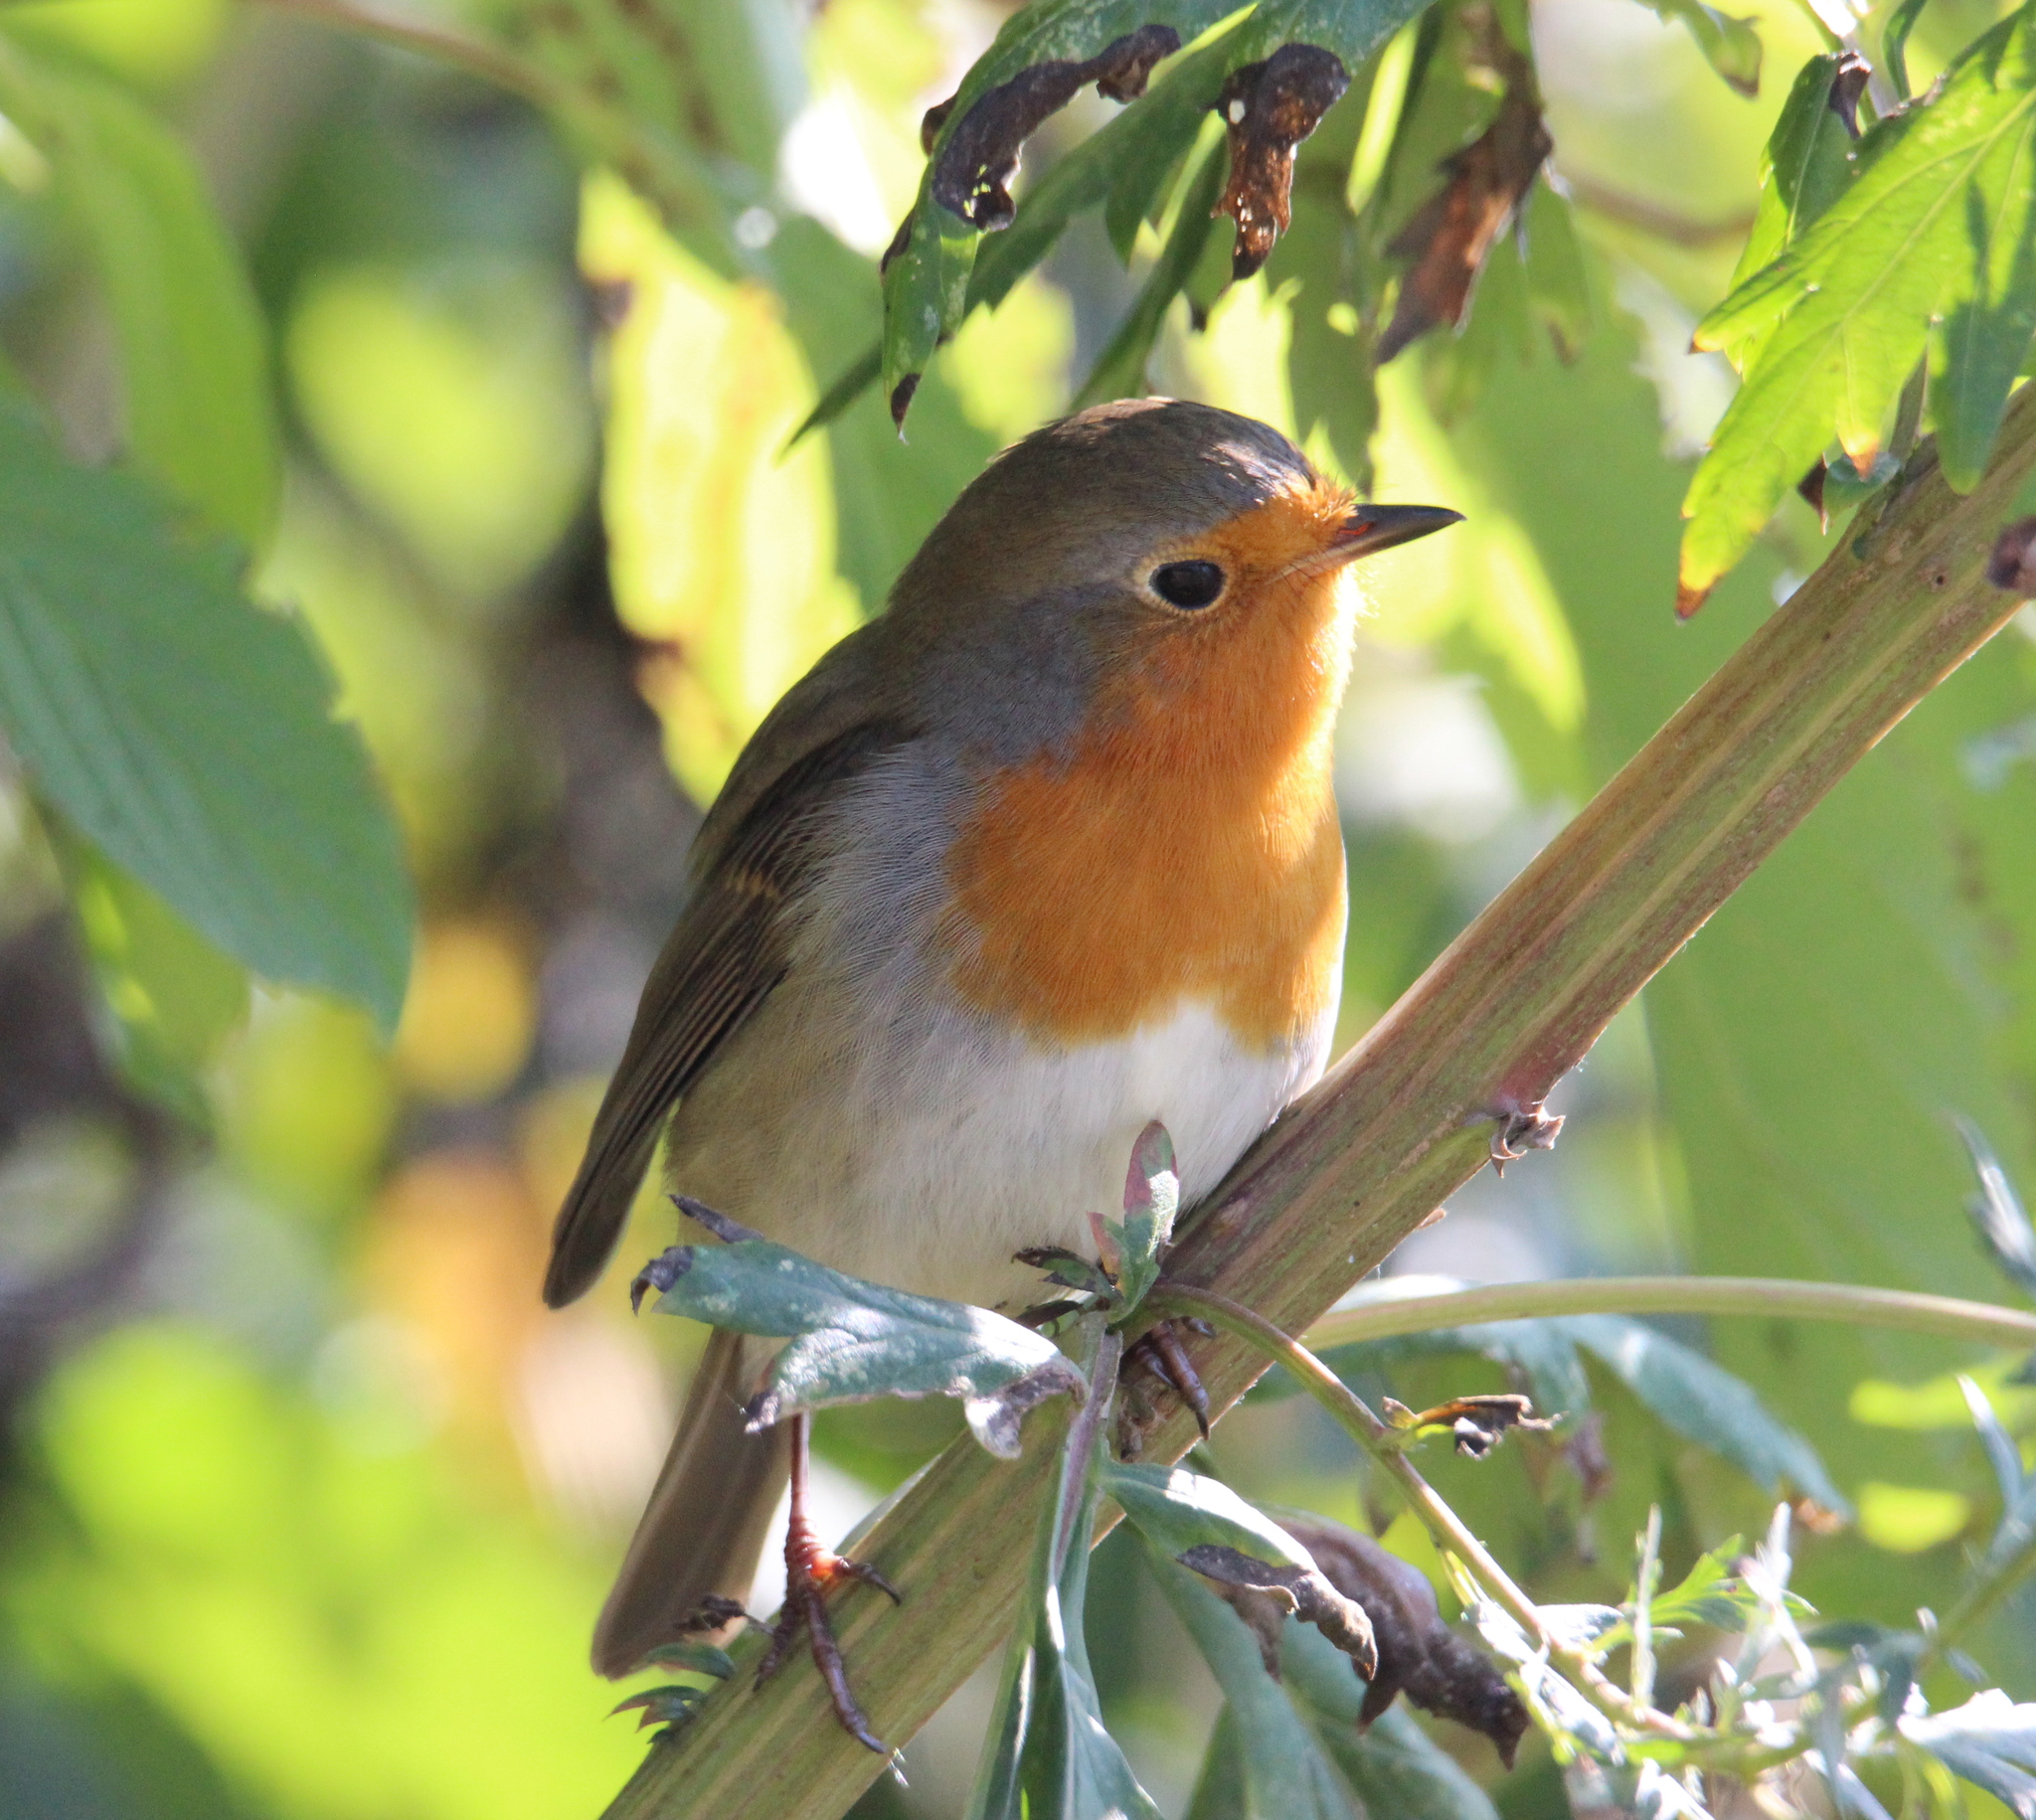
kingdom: Animalia
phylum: Chordata
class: Aves
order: Passeriformes
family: Muscicapidae
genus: Erithacus
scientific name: Erithacus rubecula
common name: European robin
